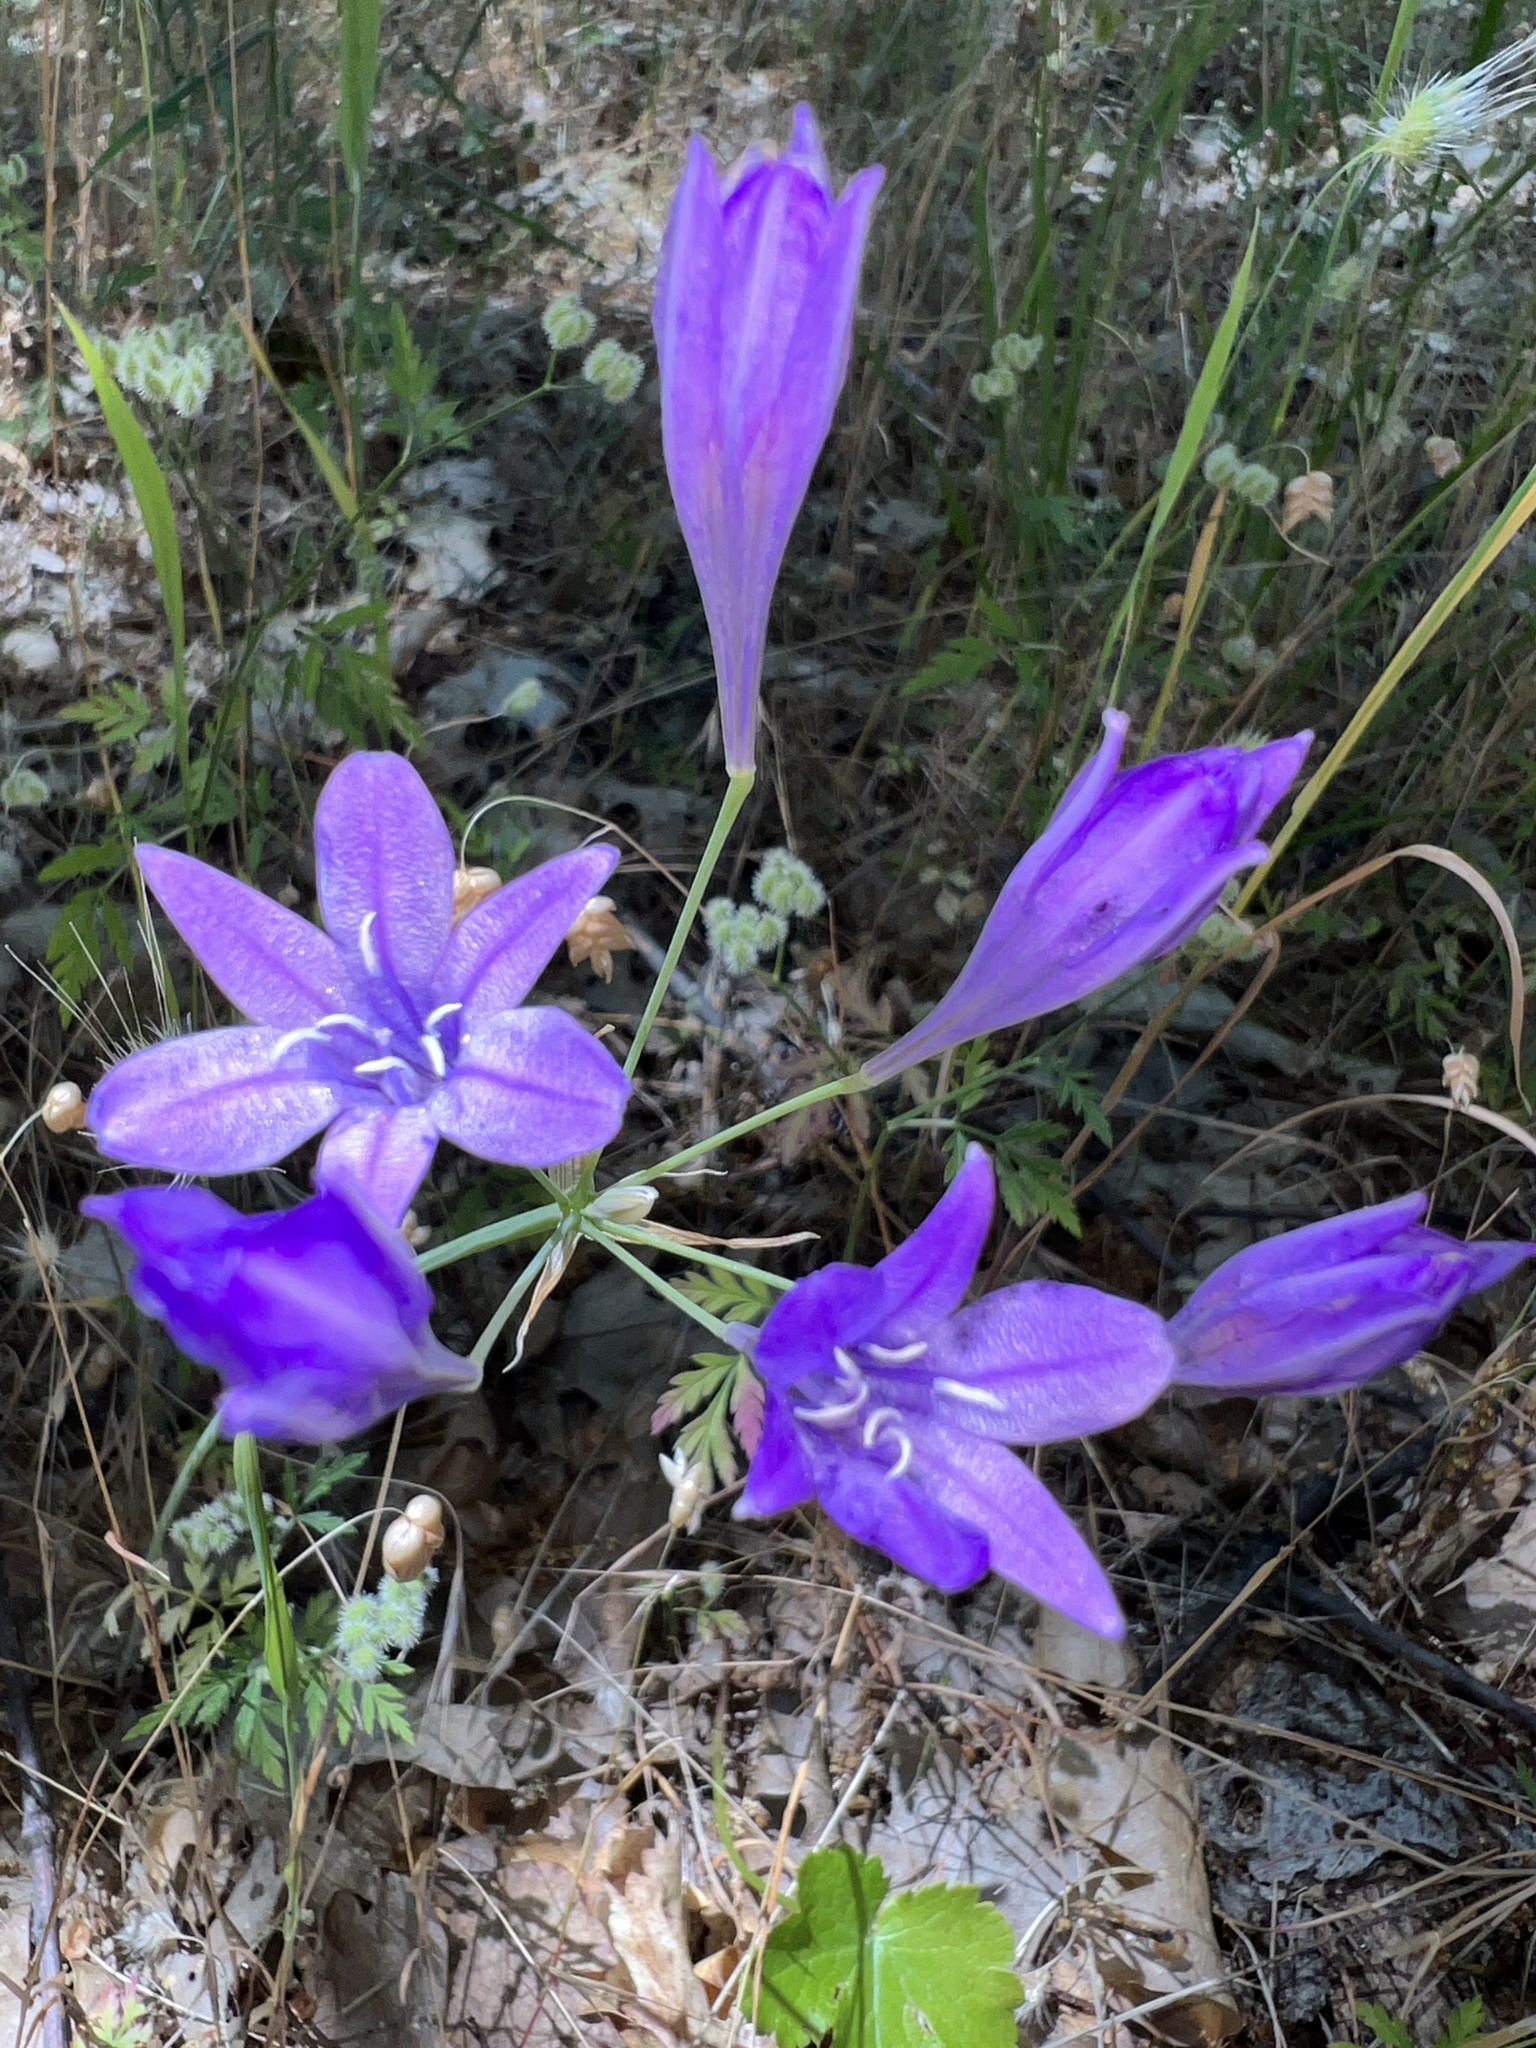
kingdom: Plantae
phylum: Tracheophyta
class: Liliopsida
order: Asparagales
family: Asparagaceae
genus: Triteleia
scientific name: Triteleia laxa
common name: Triplet-lily
